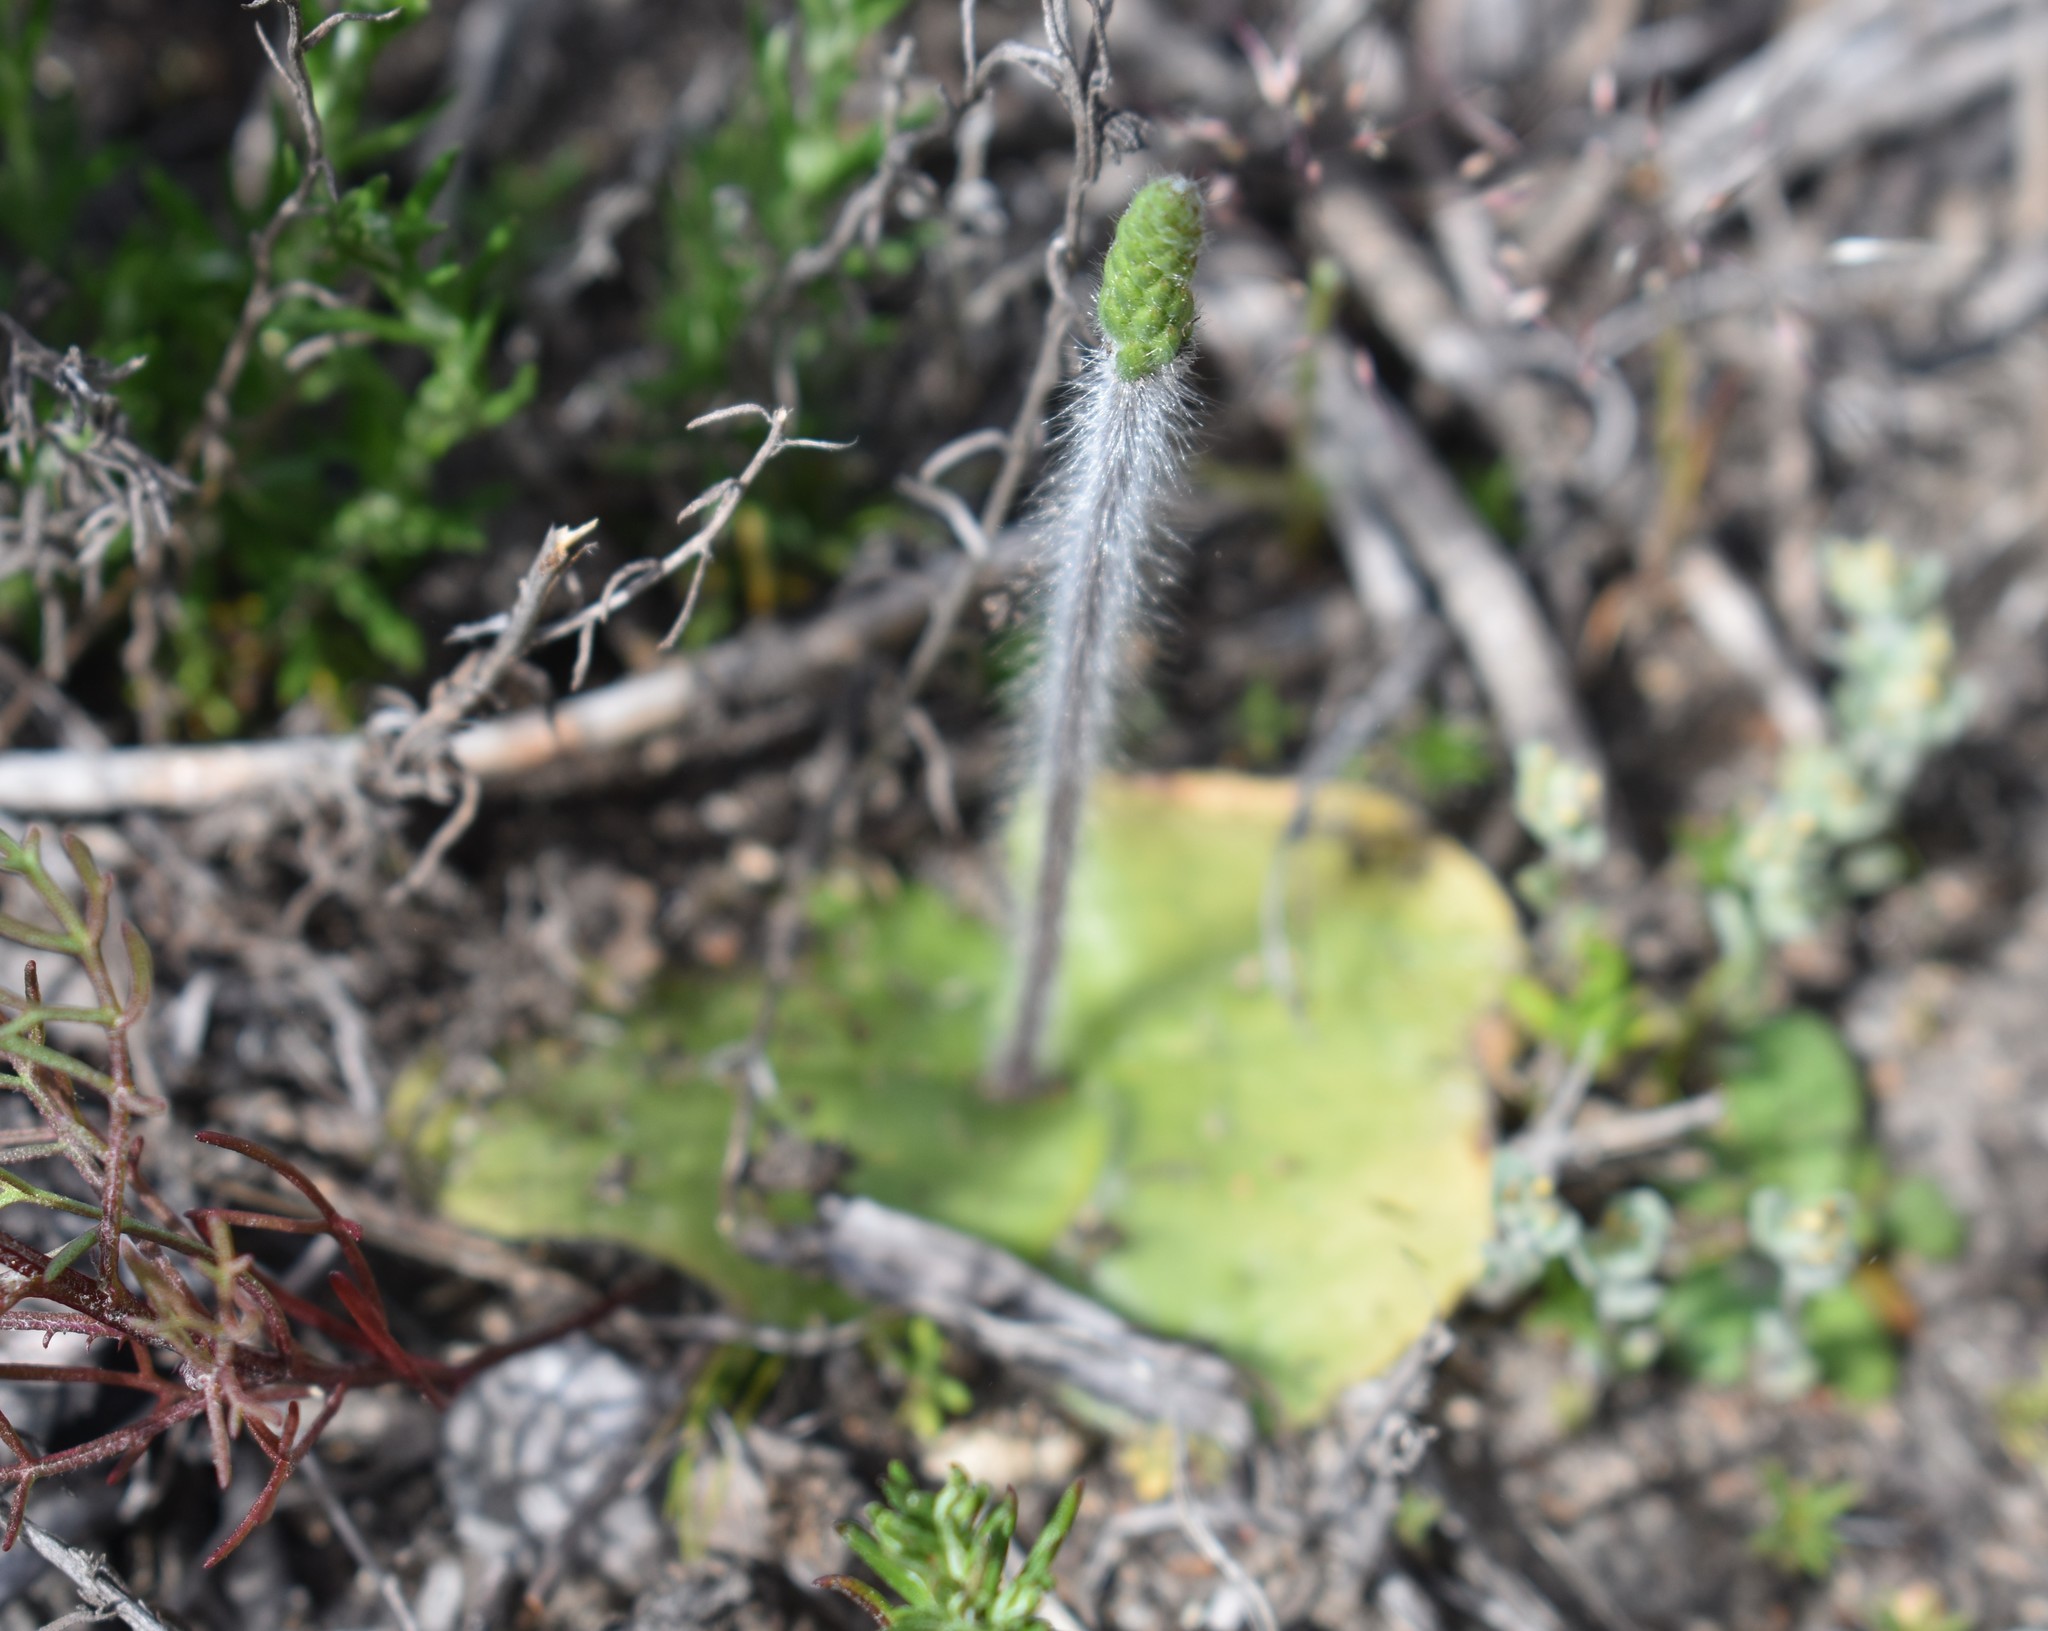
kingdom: Plantae
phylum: Tracheophyta
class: Liliopsida
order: Asparagales
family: Orchidaceae
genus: Holothrix
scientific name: Holothrix villosa
